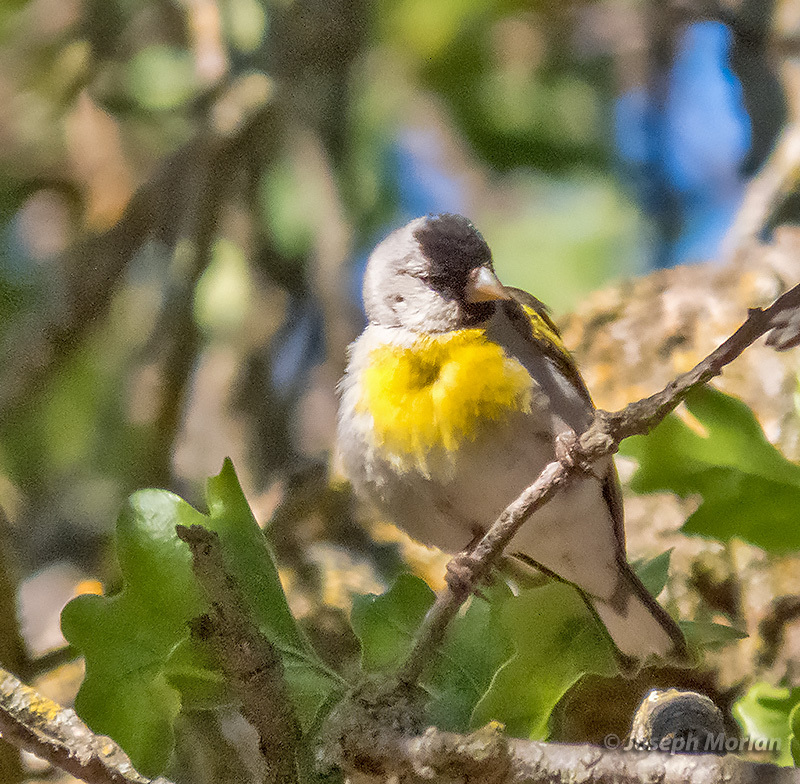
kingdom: Animalia
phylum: Chordata
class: Aves
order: Passeriformes
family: Fringillidae
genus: Spinus
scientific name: Spinus lawrencei
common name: Lawrence's goldfinch
